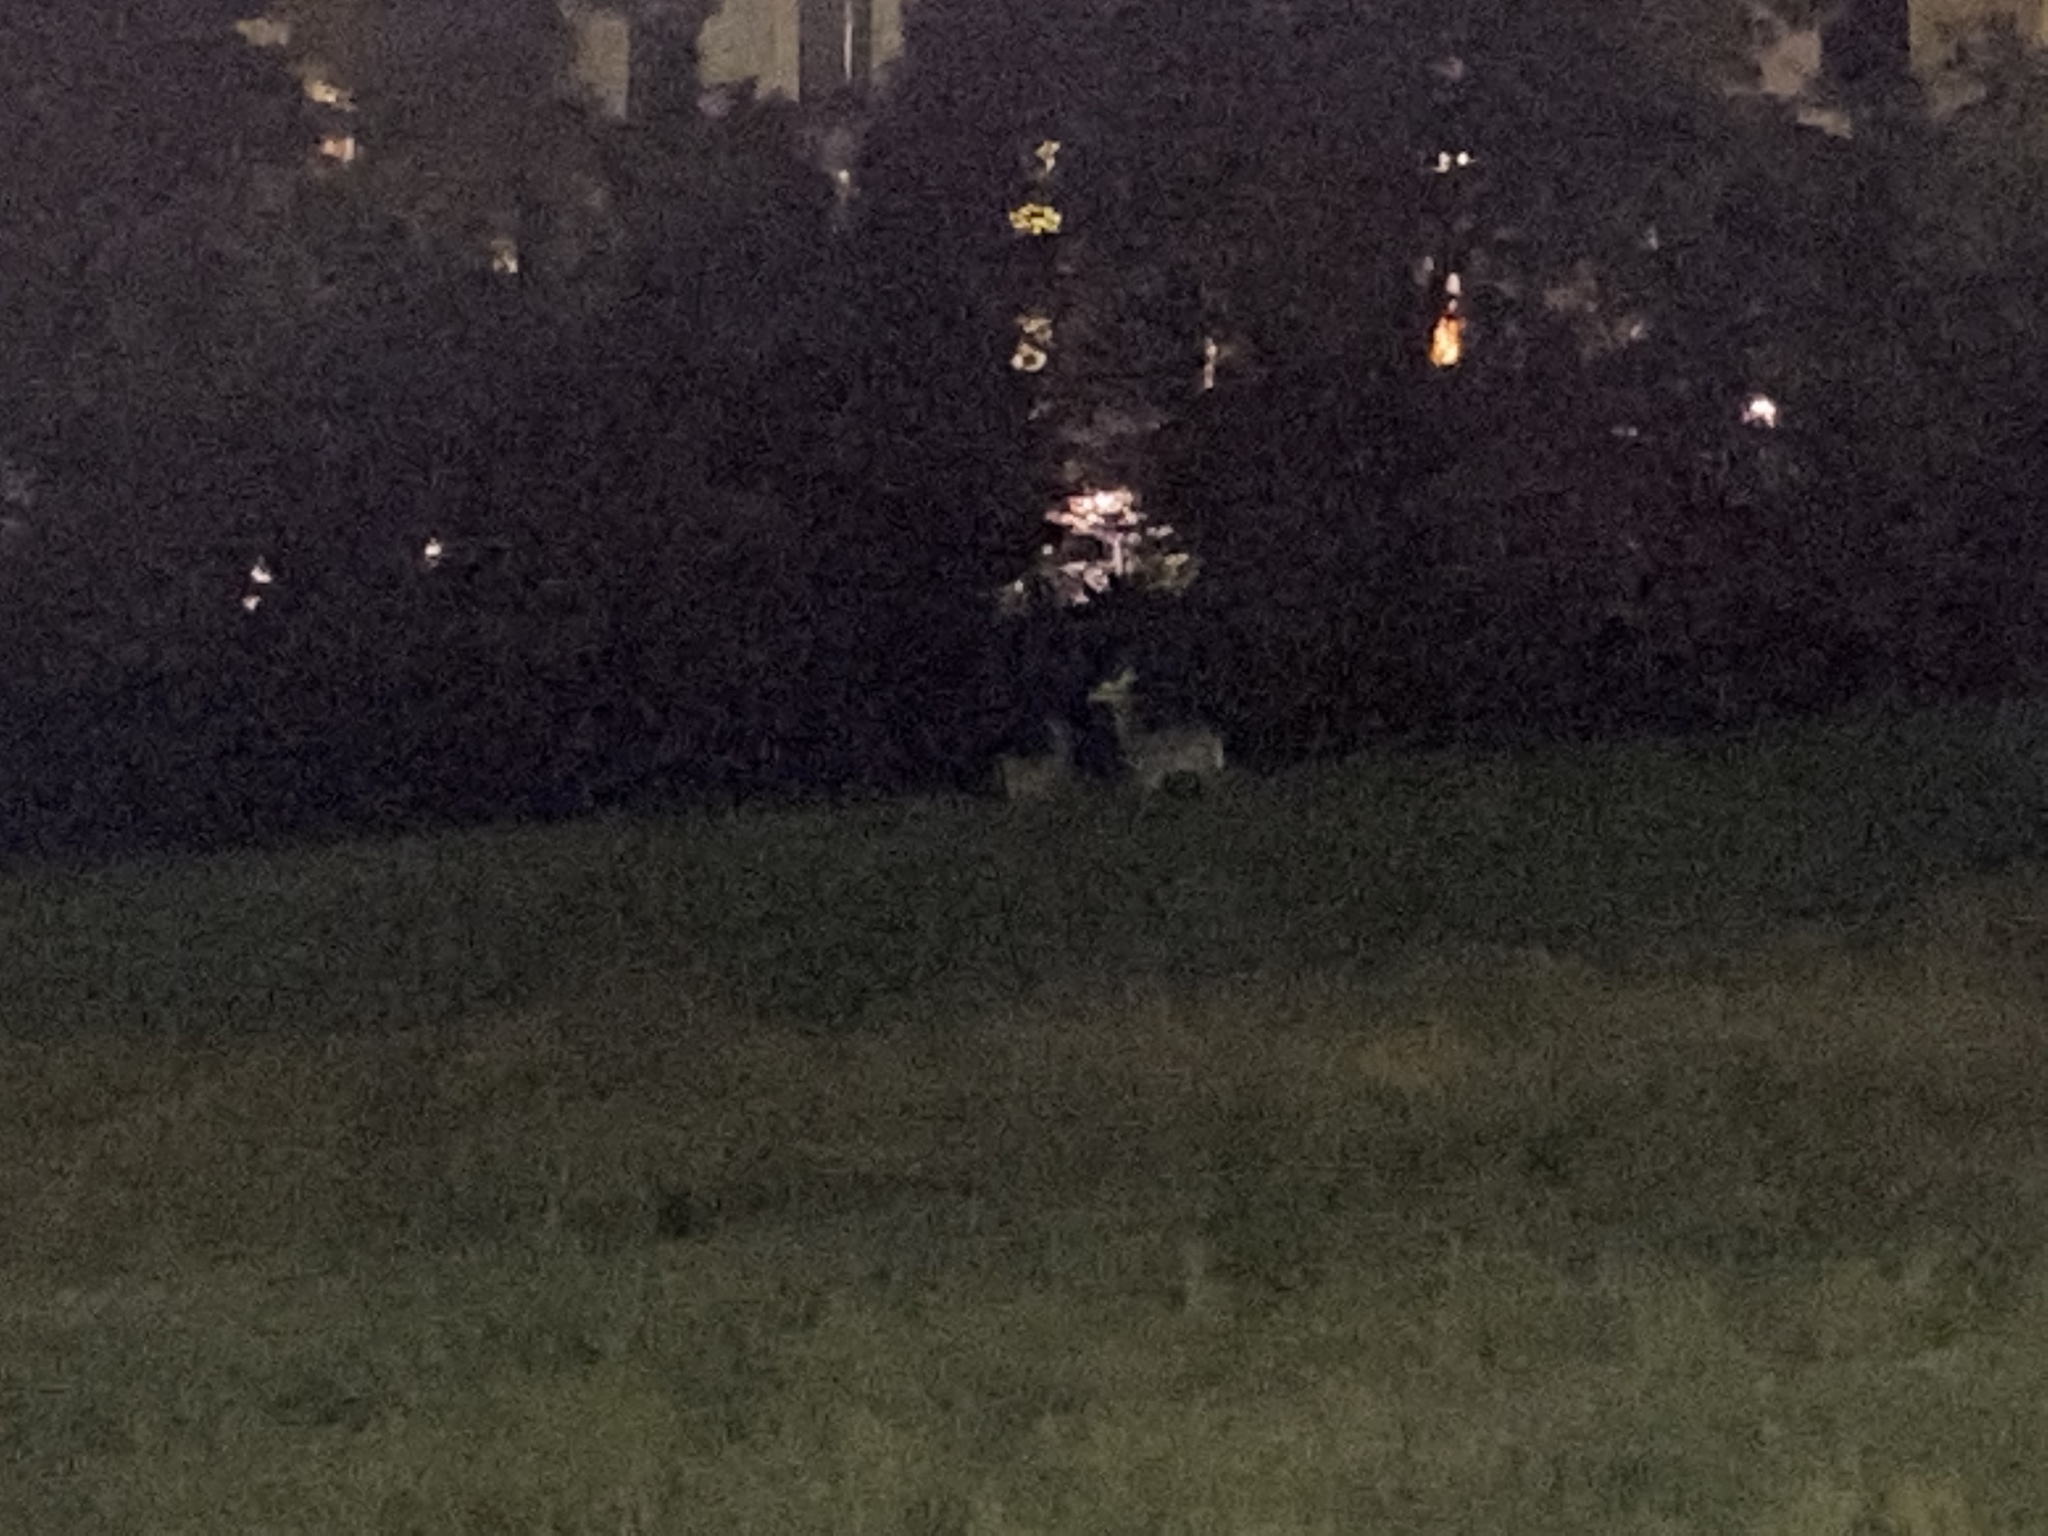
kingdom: Animalia
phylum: Chordata
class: Mammalia
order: Artiodactyla
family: Cervidae
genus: Odocoileus
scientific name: Odocoileus virginianus
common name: White-tailed deer
